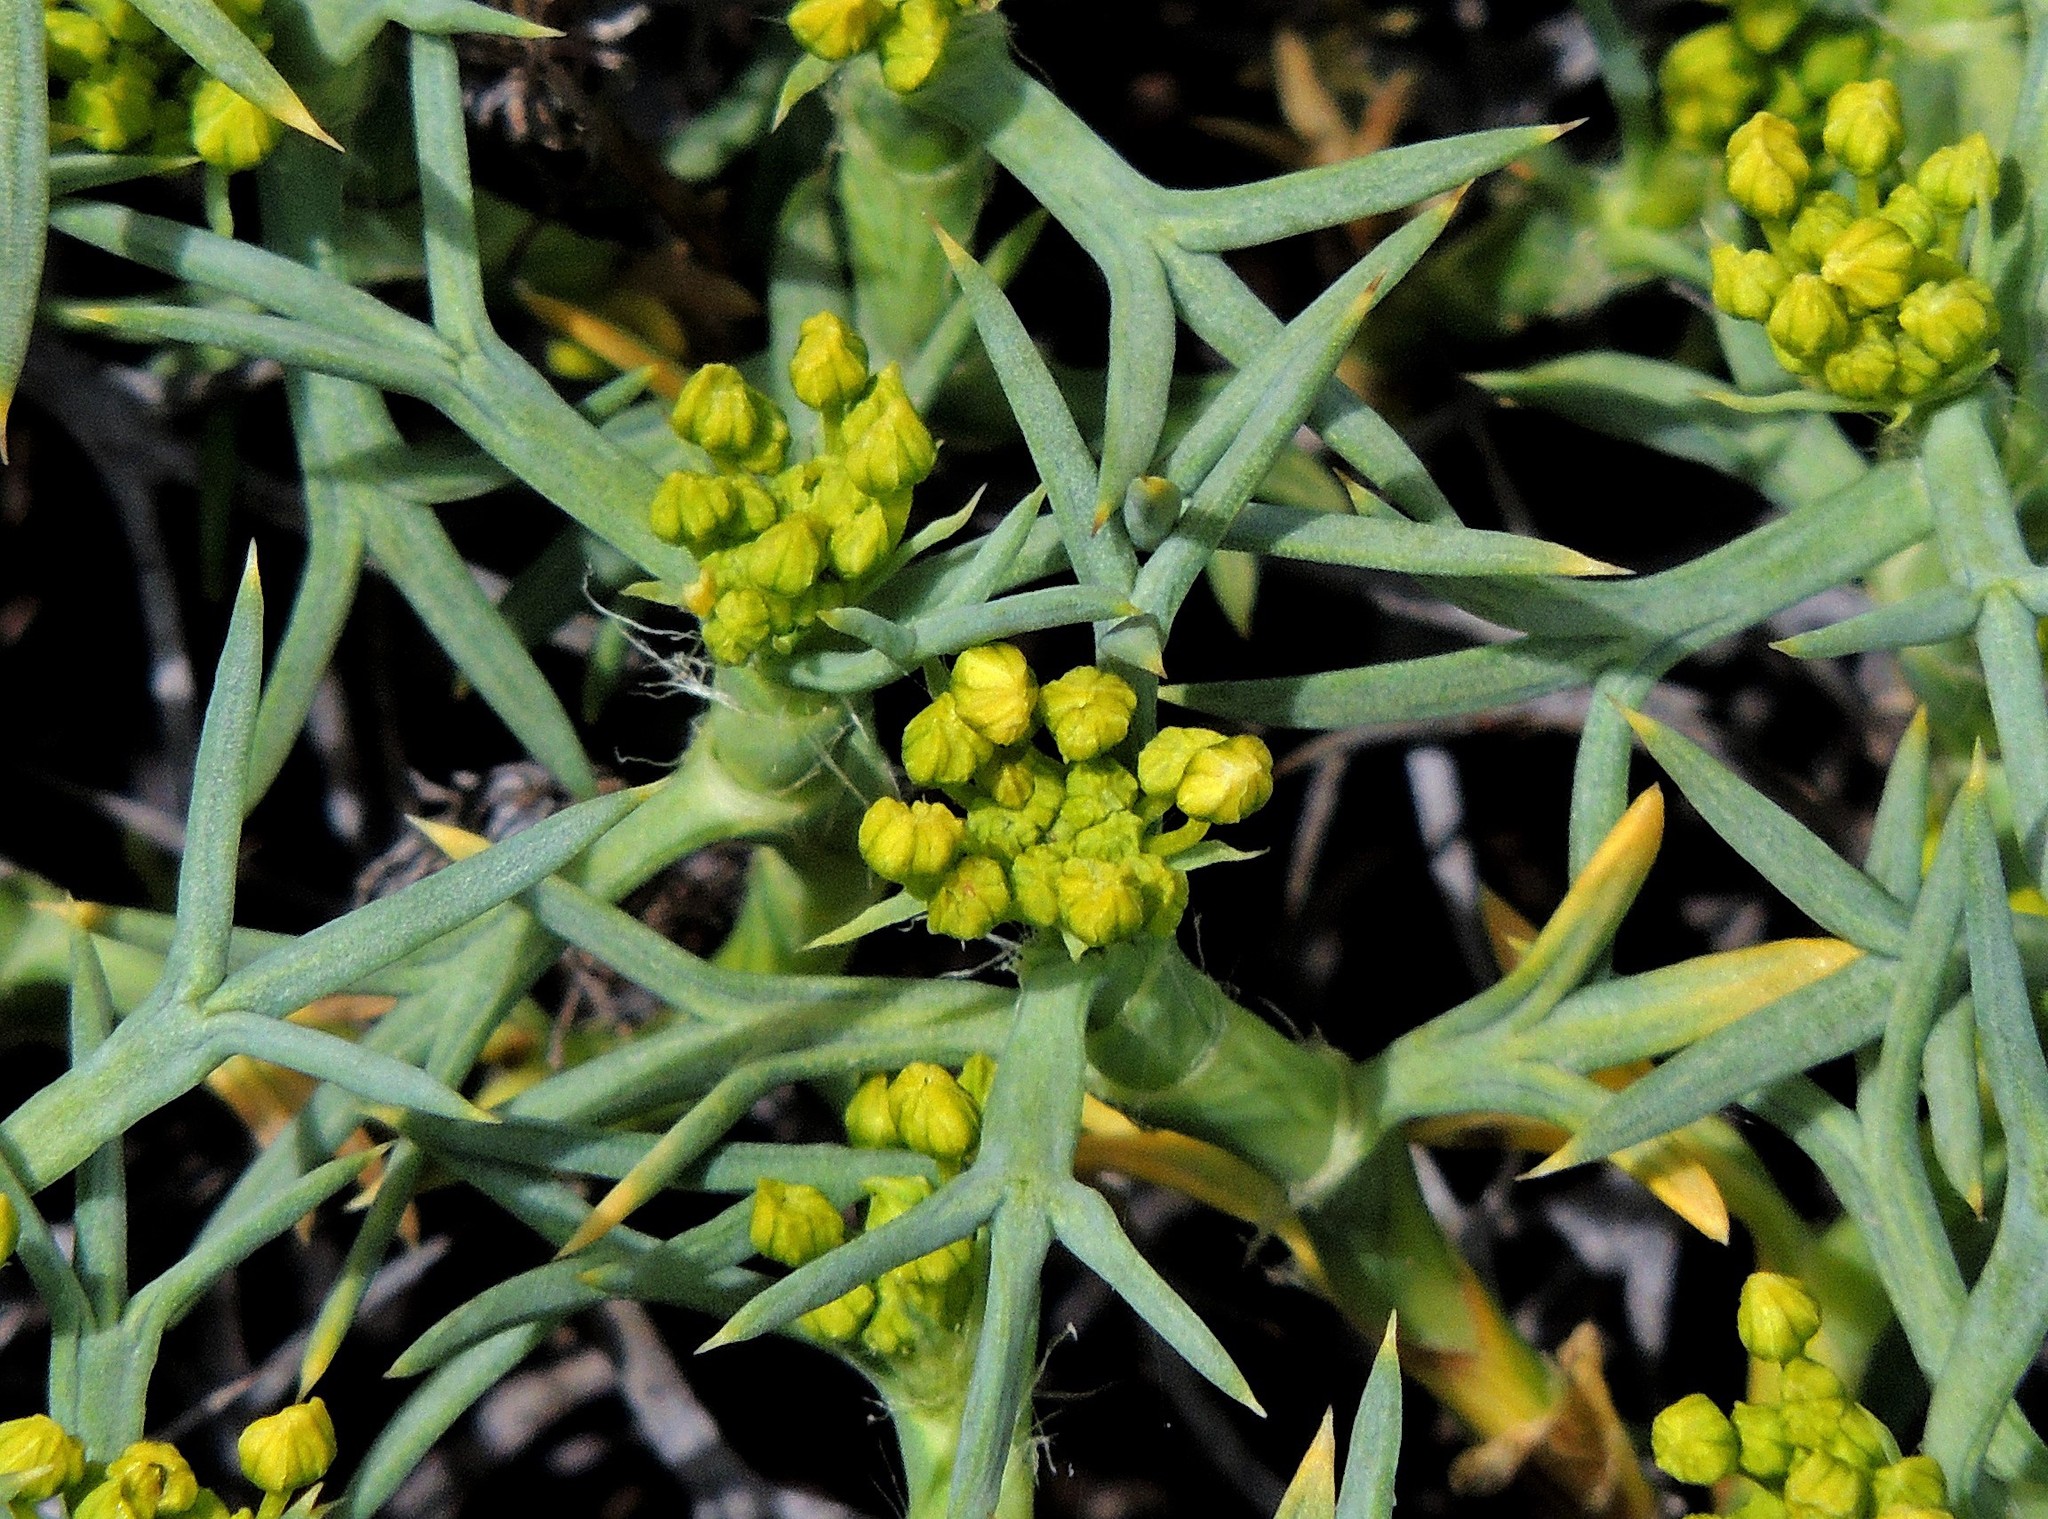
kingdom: Plantae
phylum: Tracheophyta
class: Magnoliopsida
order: Apiales
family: Apiaceae
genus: Azorella
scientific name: Azorella prolifera
